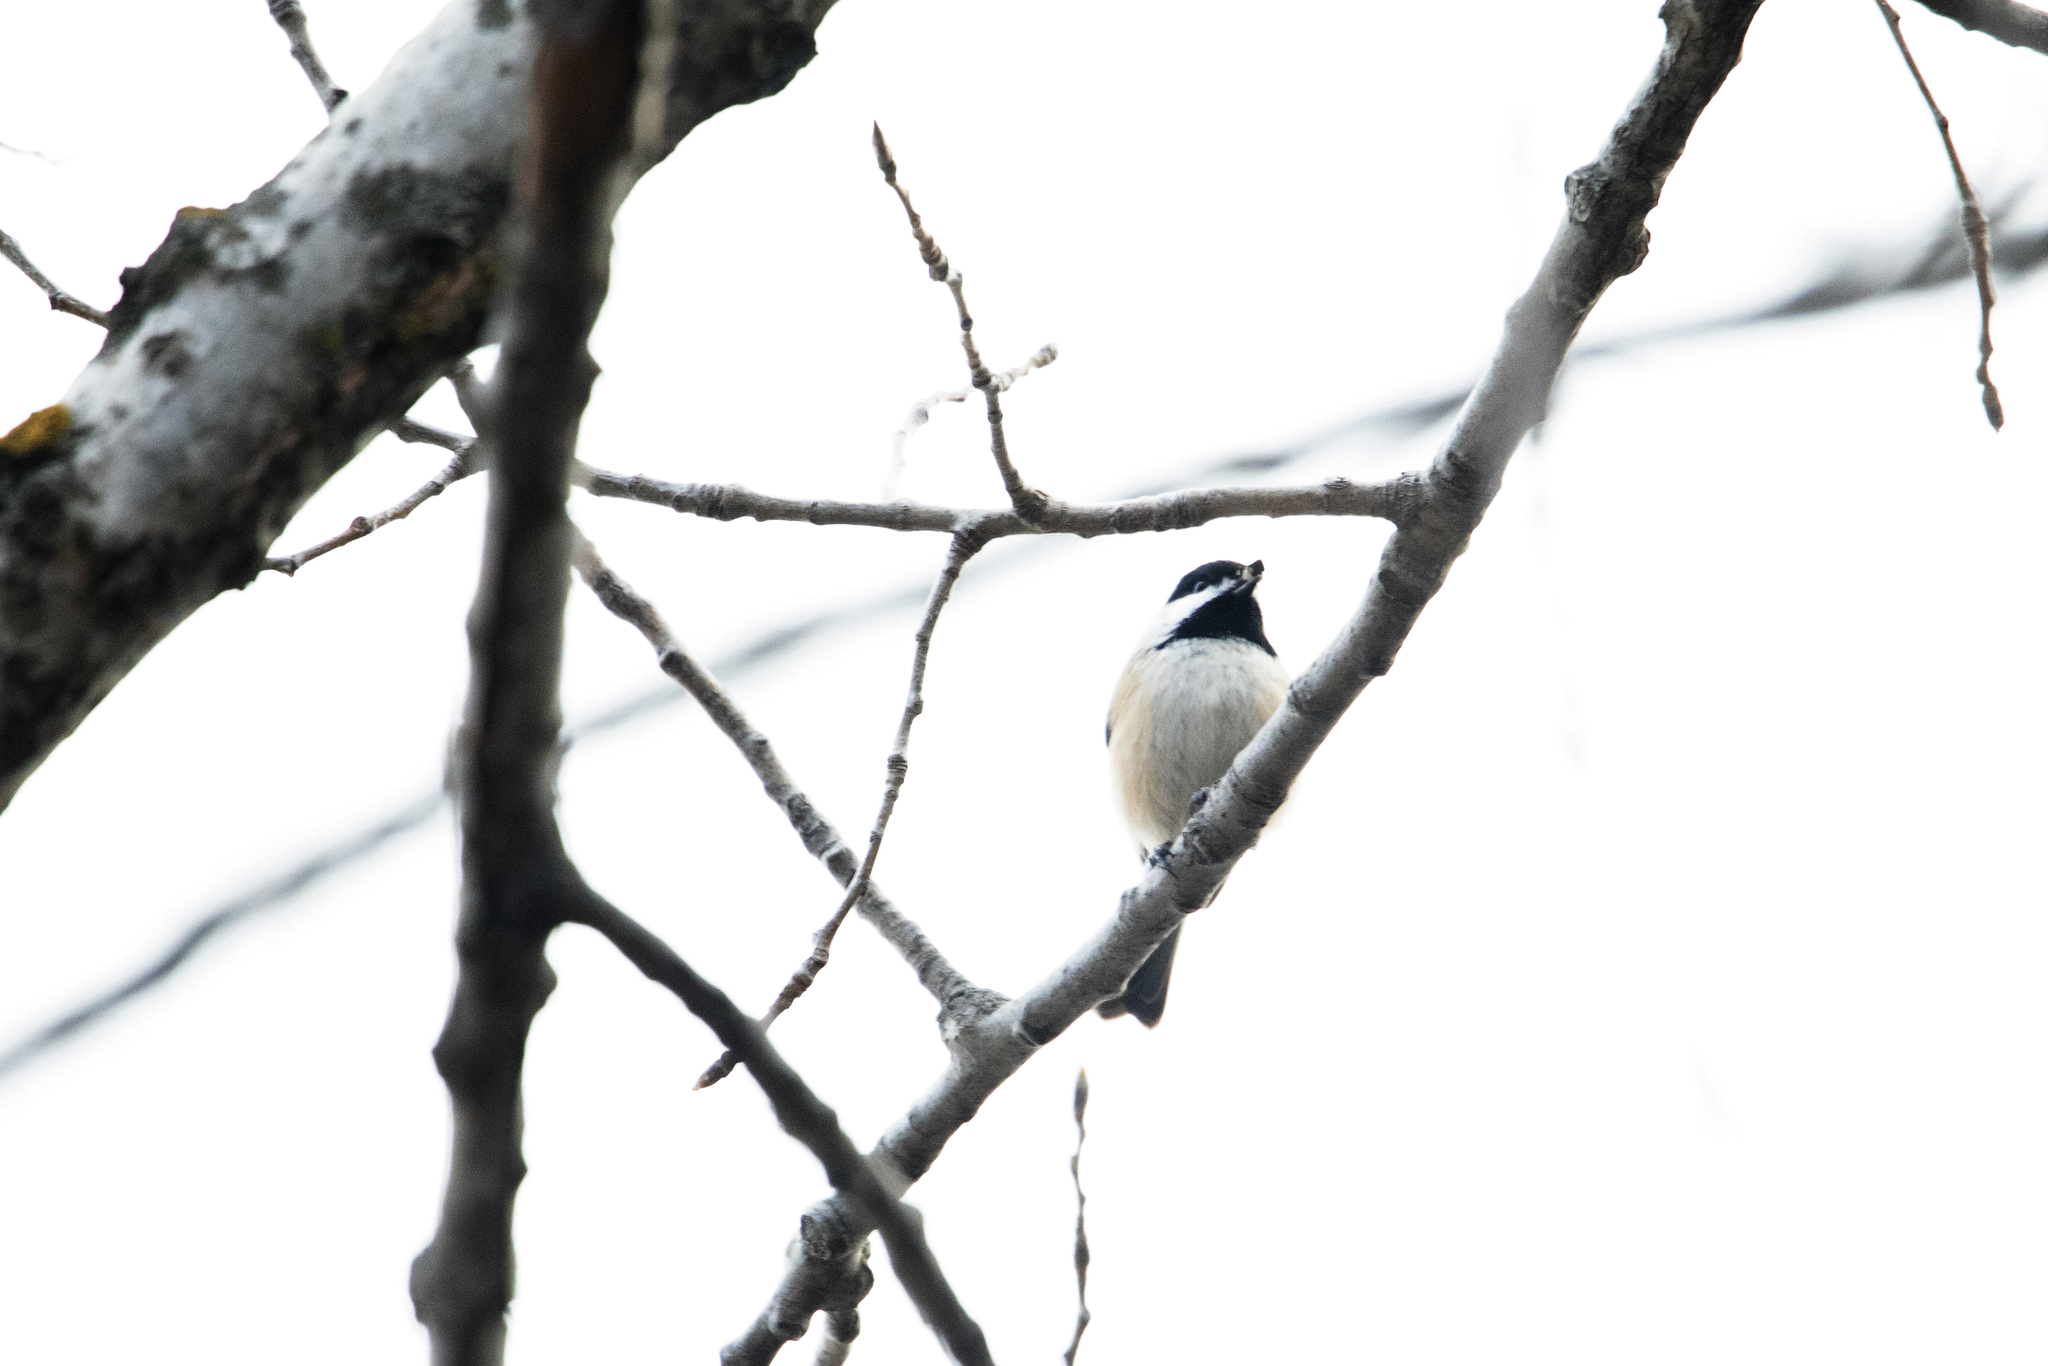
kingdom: Animalia
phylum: Chordata
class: Aves
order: Passeriformes
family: Paridae
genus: Poecile
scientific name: Poecile atricapillus
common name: Black-capped chickadee
